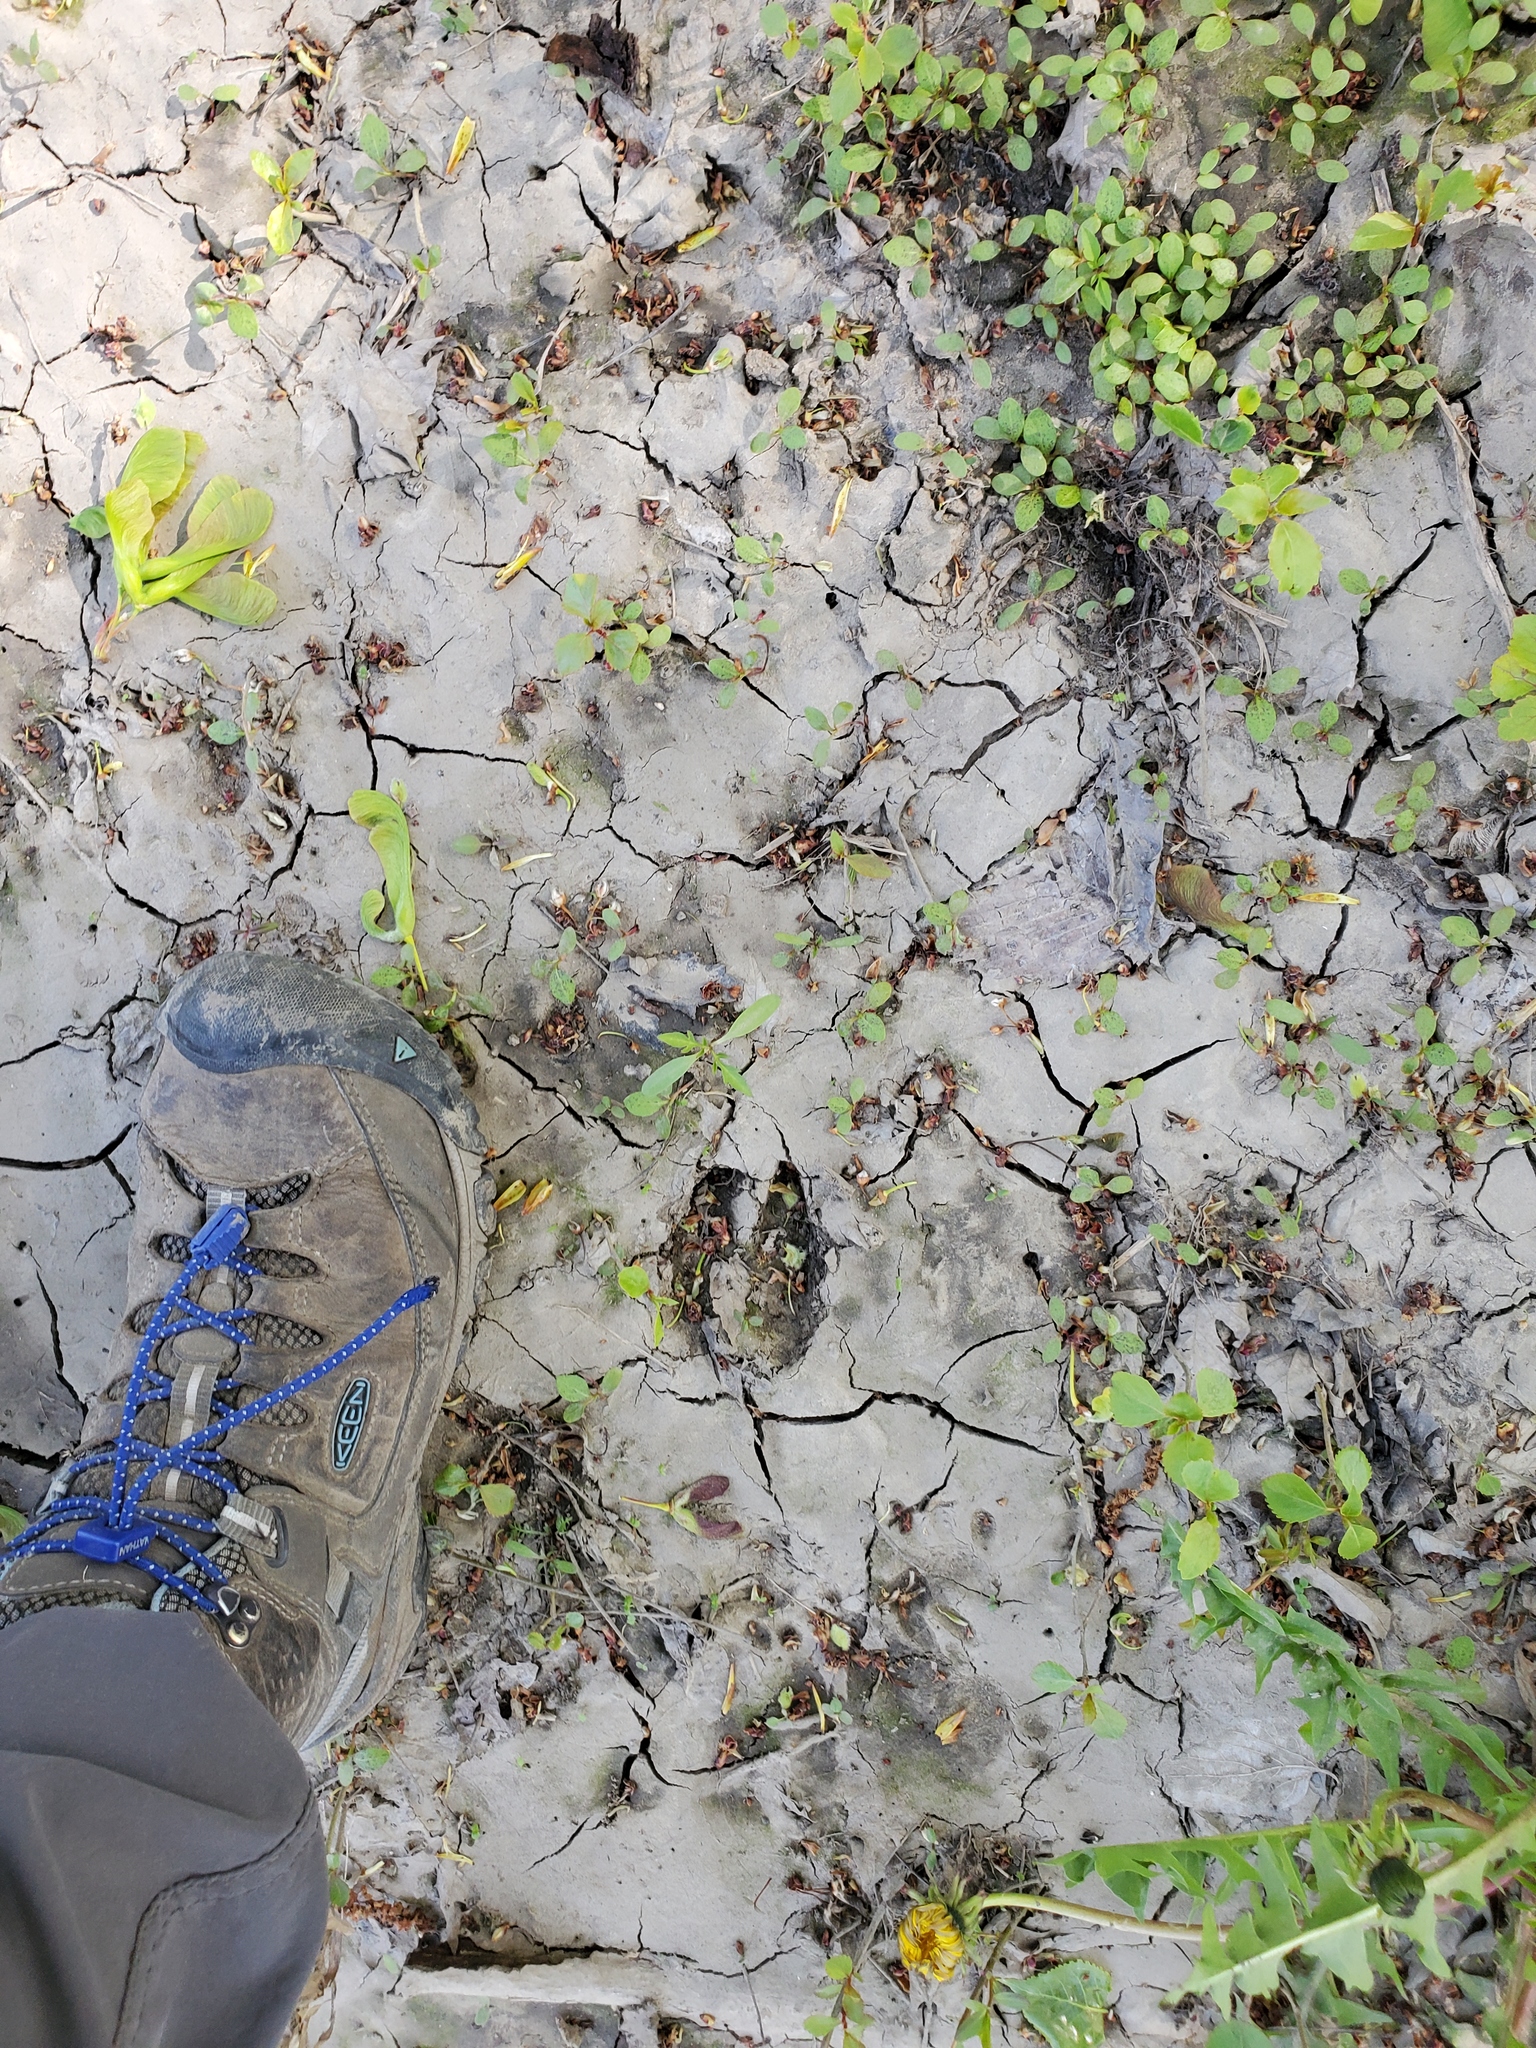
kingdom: Animalia
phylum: Chordata
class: Mammalia
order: Artiodactyla
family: Cervidae
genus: Odocoileus
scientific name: Odocoileus virginianus
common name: White-tailed deer
